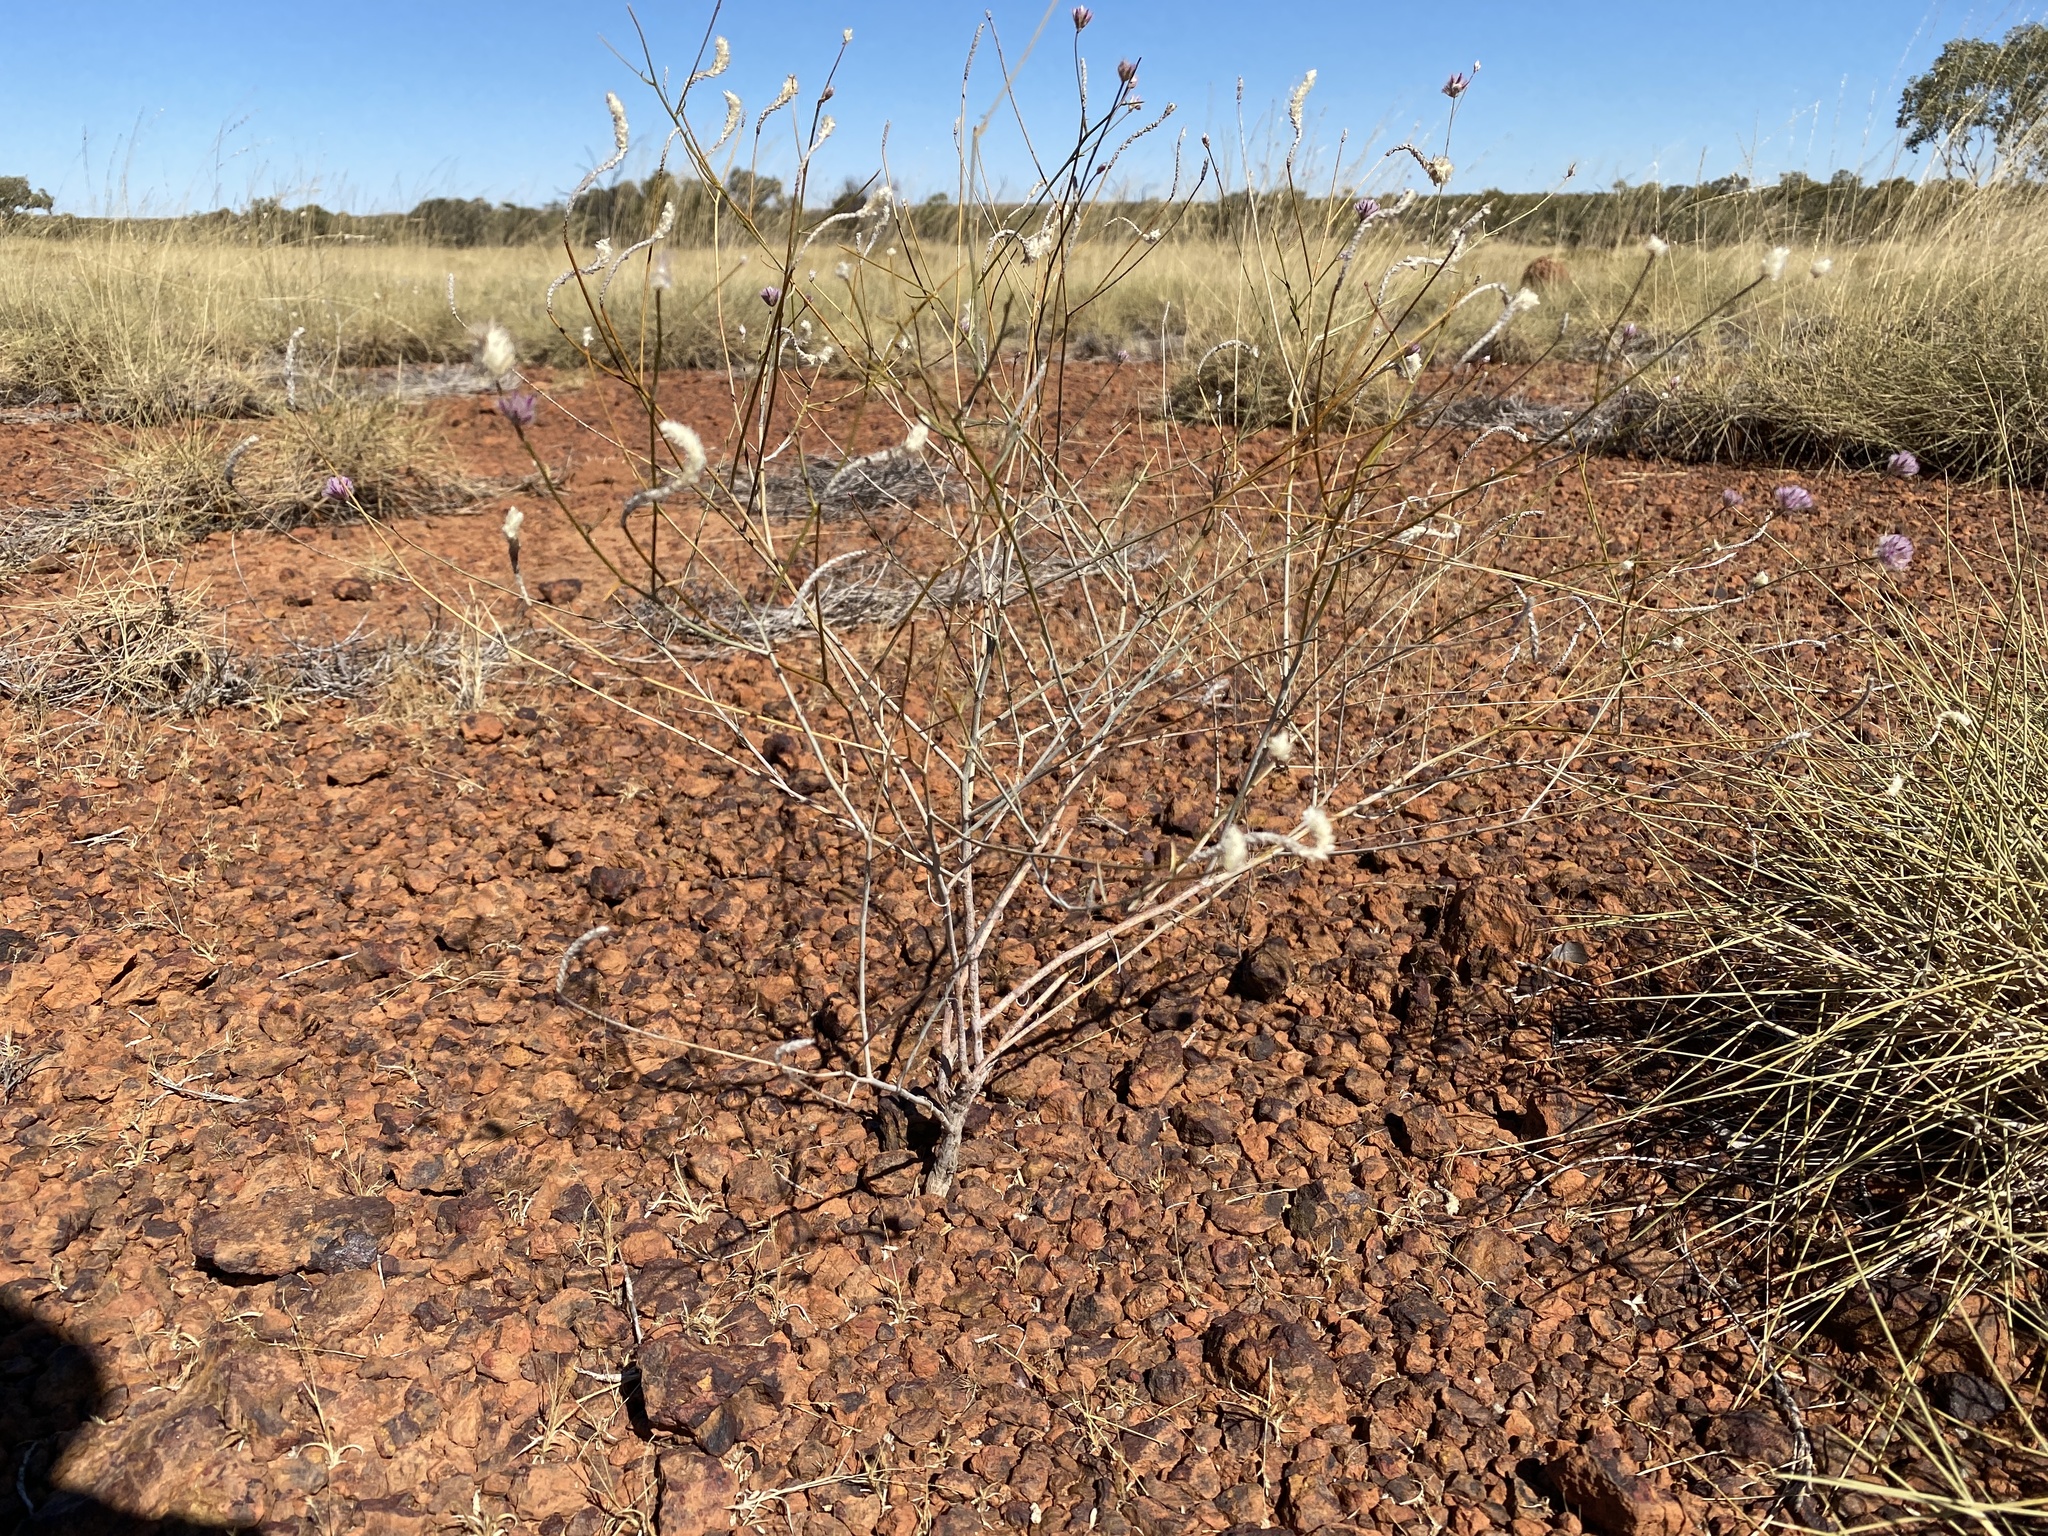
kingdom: Plantae
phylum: Tracheophyta
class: Magnoliopsida
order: Caryophyllales
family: Amaranthaceae
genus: Ptilotus
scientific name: Ptilotus schwartzii
